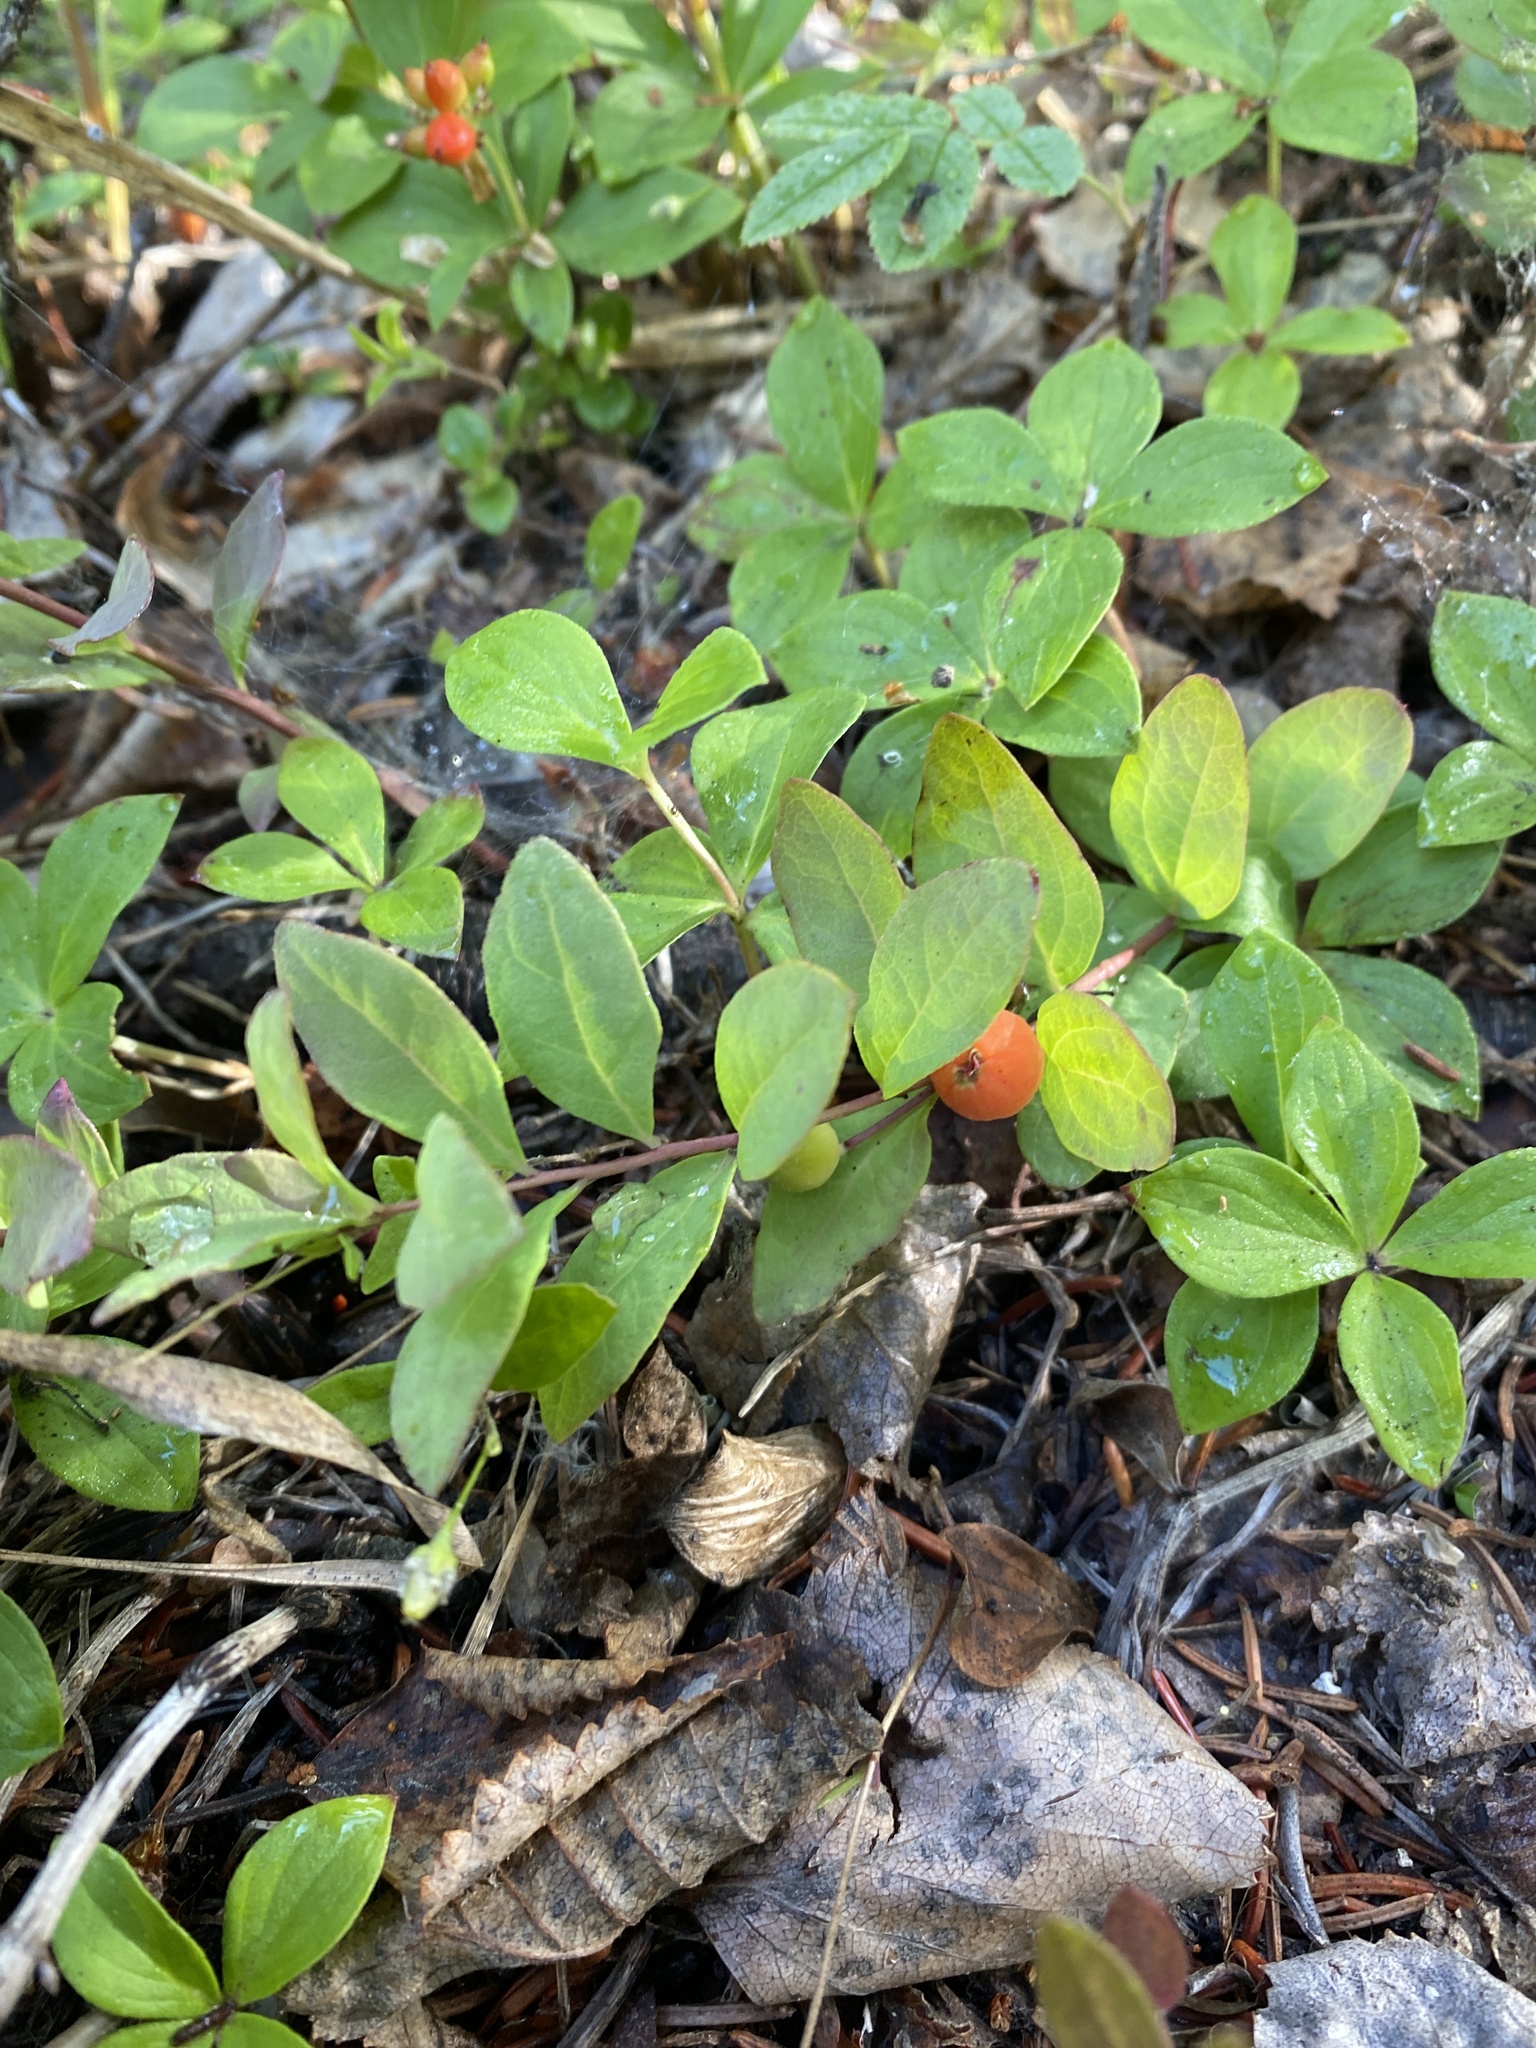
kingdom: Plantae
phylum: Tracheophyta
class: Magnoliopsida
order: Santalales
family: Comandraceae
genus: Geocaulon
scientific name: Geocaulon lividum
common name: Earthberry
